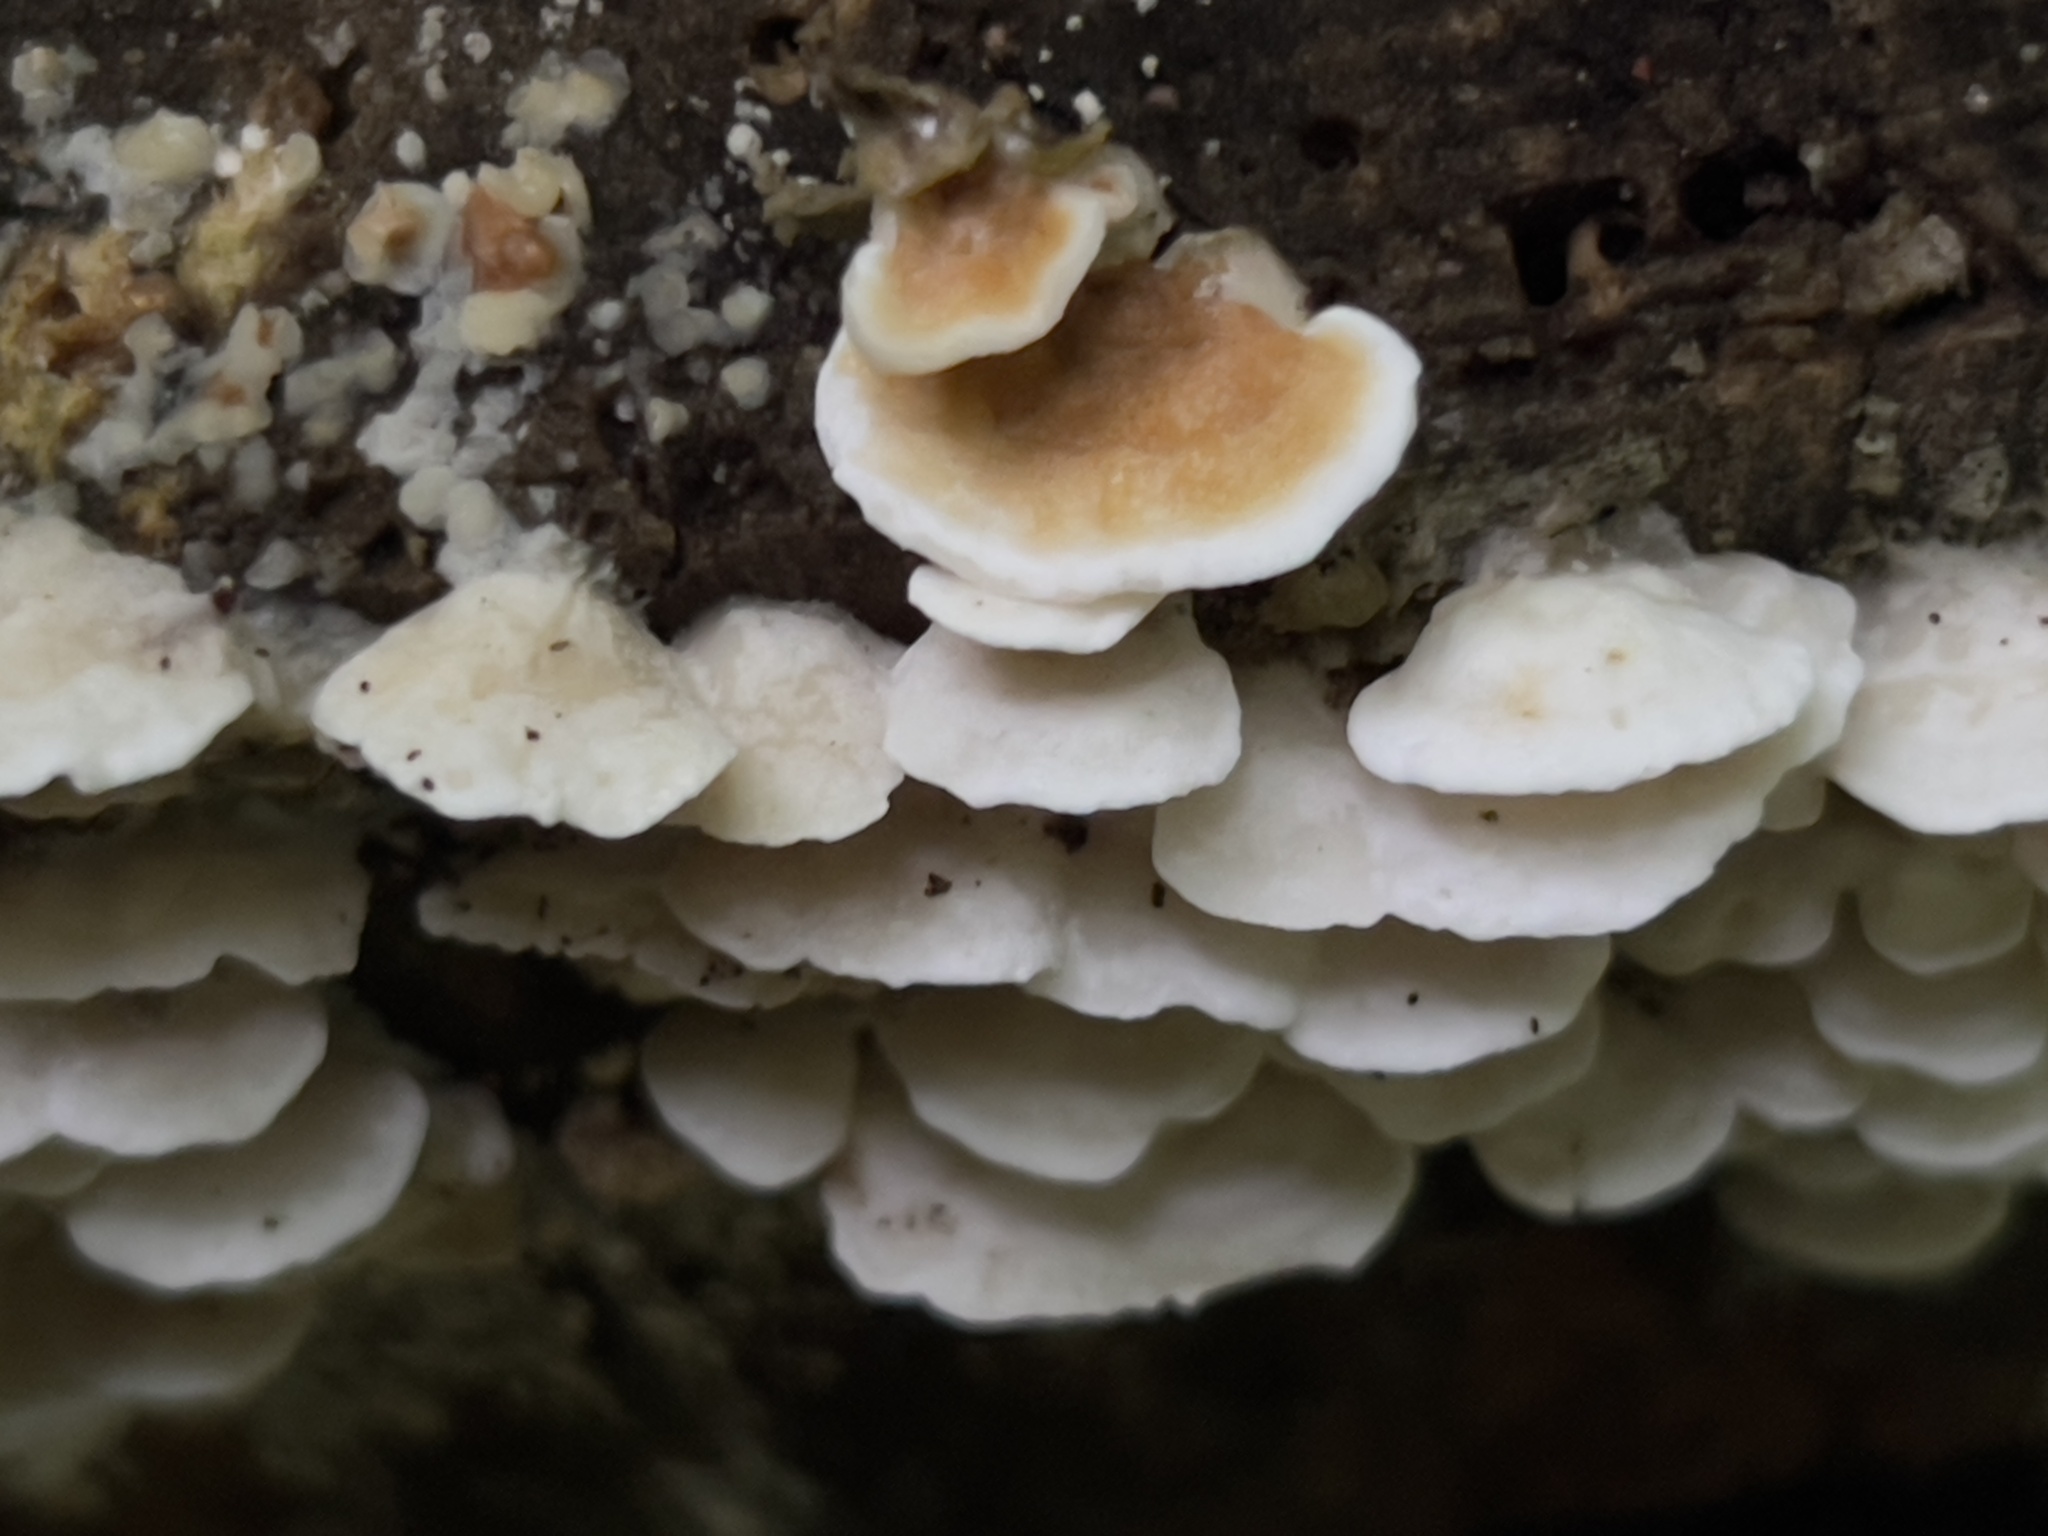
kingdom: Fungi
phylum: Basidiomycota
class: Agaricomycetes
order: Polyporales
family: Irpicaceae
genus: Vitreoporus
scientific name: Vitreoporus dichrous
